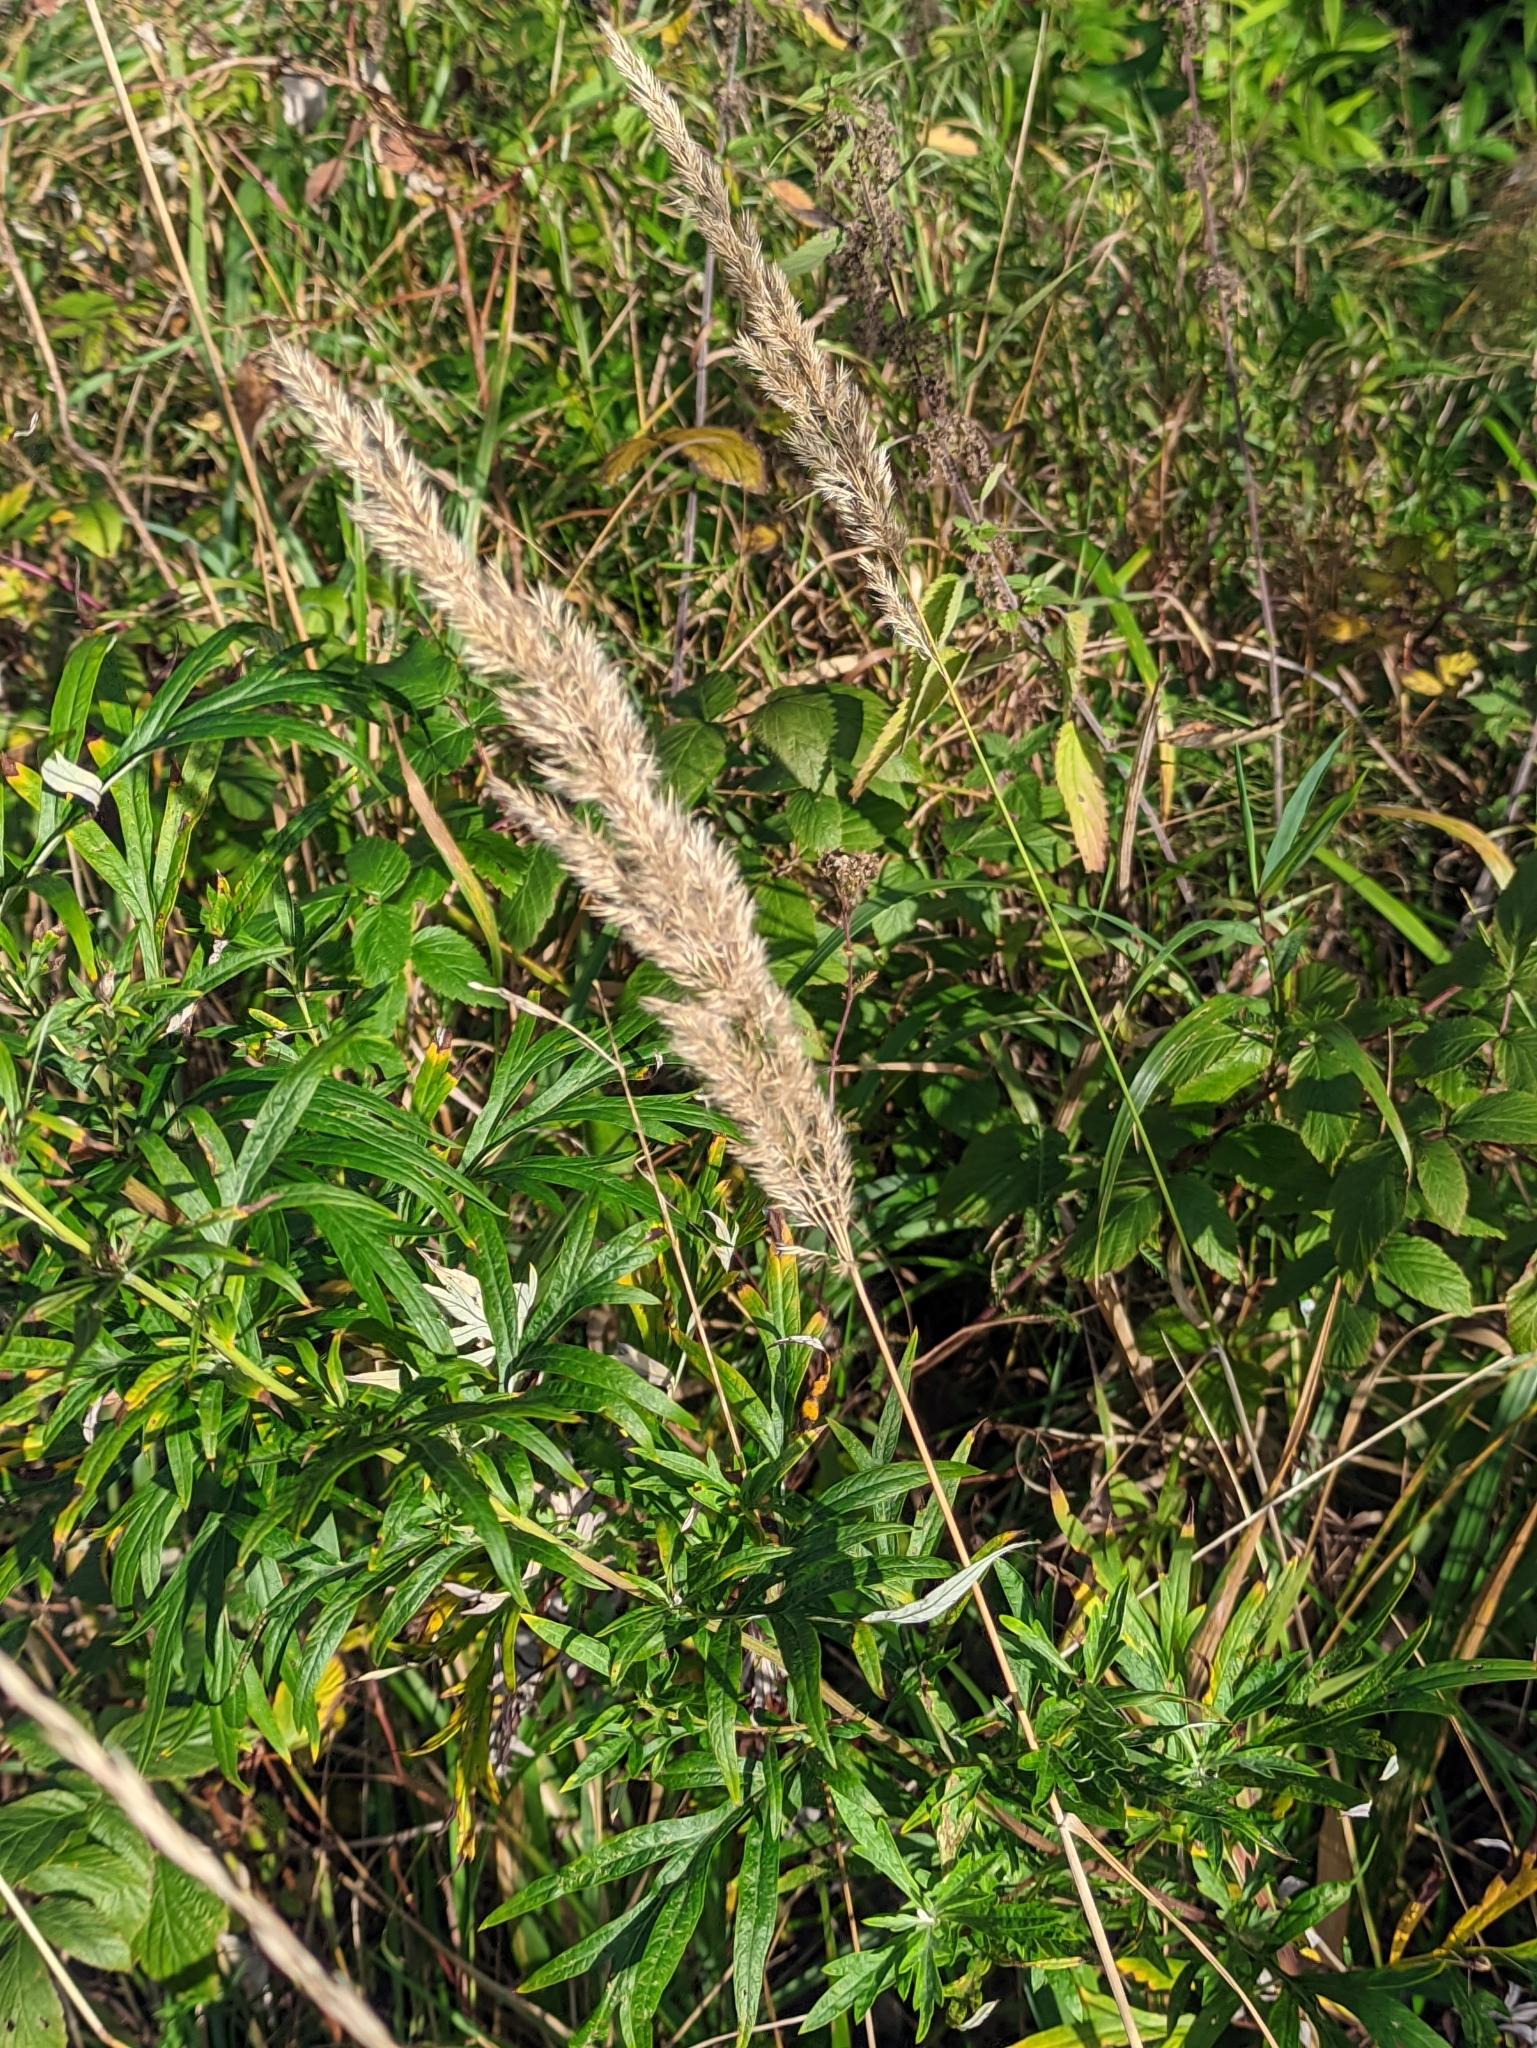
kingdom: Plantae
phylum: Tracheophyta
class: Liliopsida
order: Poales
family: Poaceae
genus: Calamagrostis
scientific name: Calamagrostis epigejos
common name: Wood small-reed
